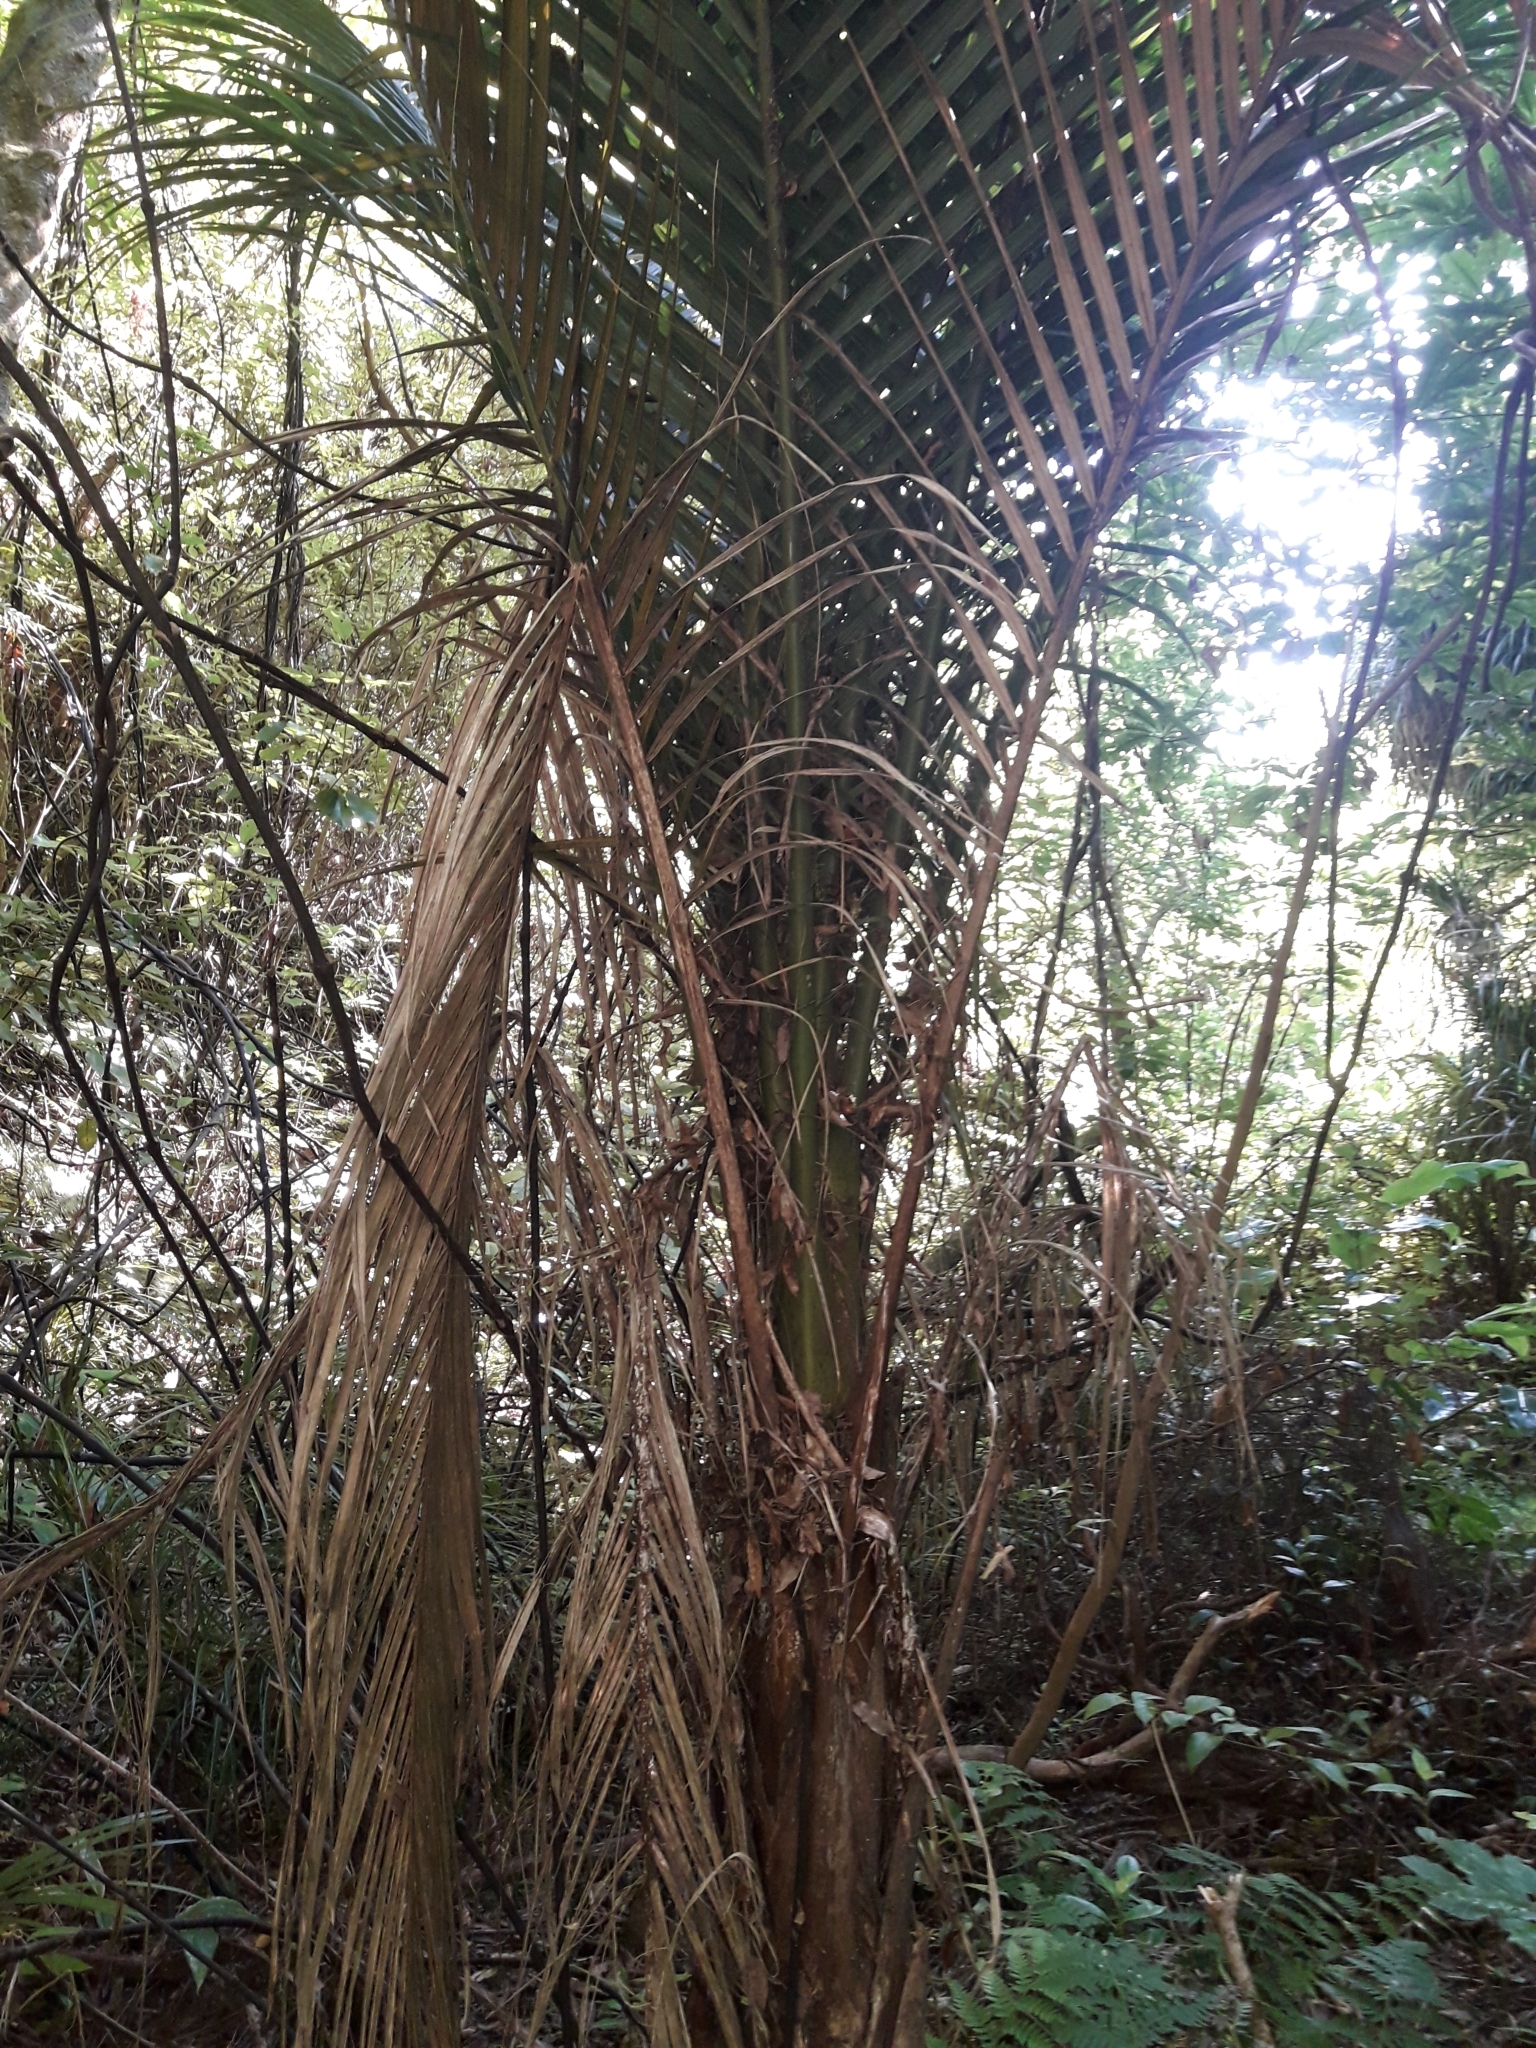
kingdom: Plantae
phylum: Tracheophyta
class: Liliopsida
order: Arecales
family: Arecaceae
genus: Rhopalostylis
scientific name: Rhopalostylis sapida
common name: Feather-duster palm
